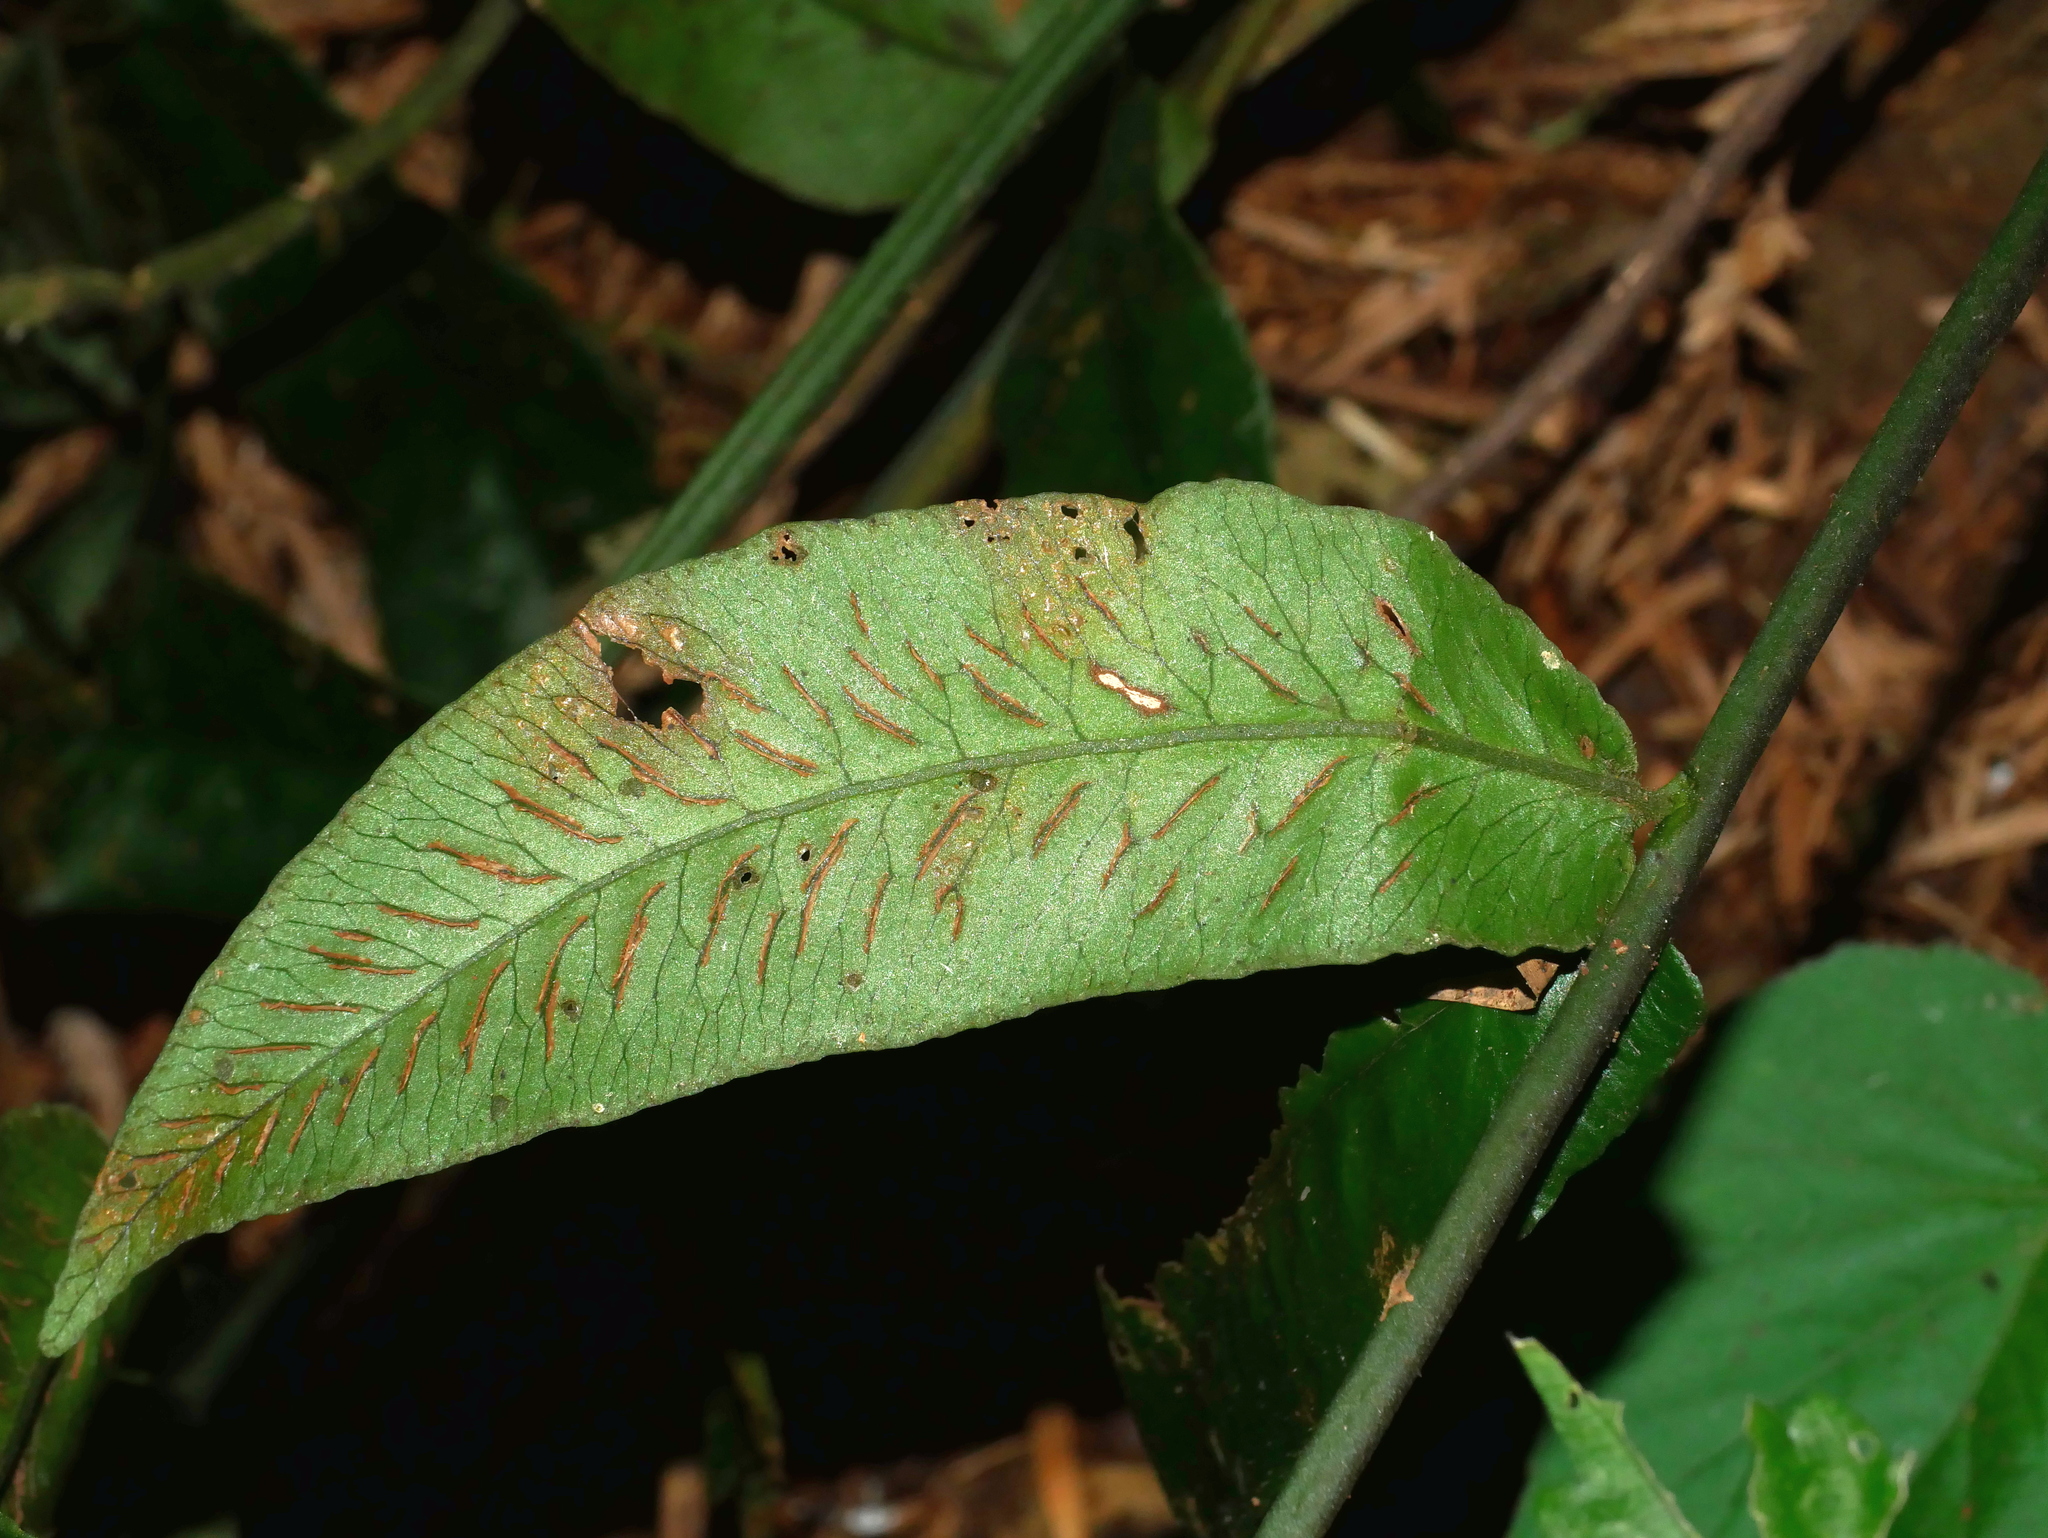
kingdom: Plantae
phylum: Tracheophyta
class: Polypodiopsida
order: Polypodiales
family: Athyriaceae
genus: Deparia
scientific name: Deparia formosana
